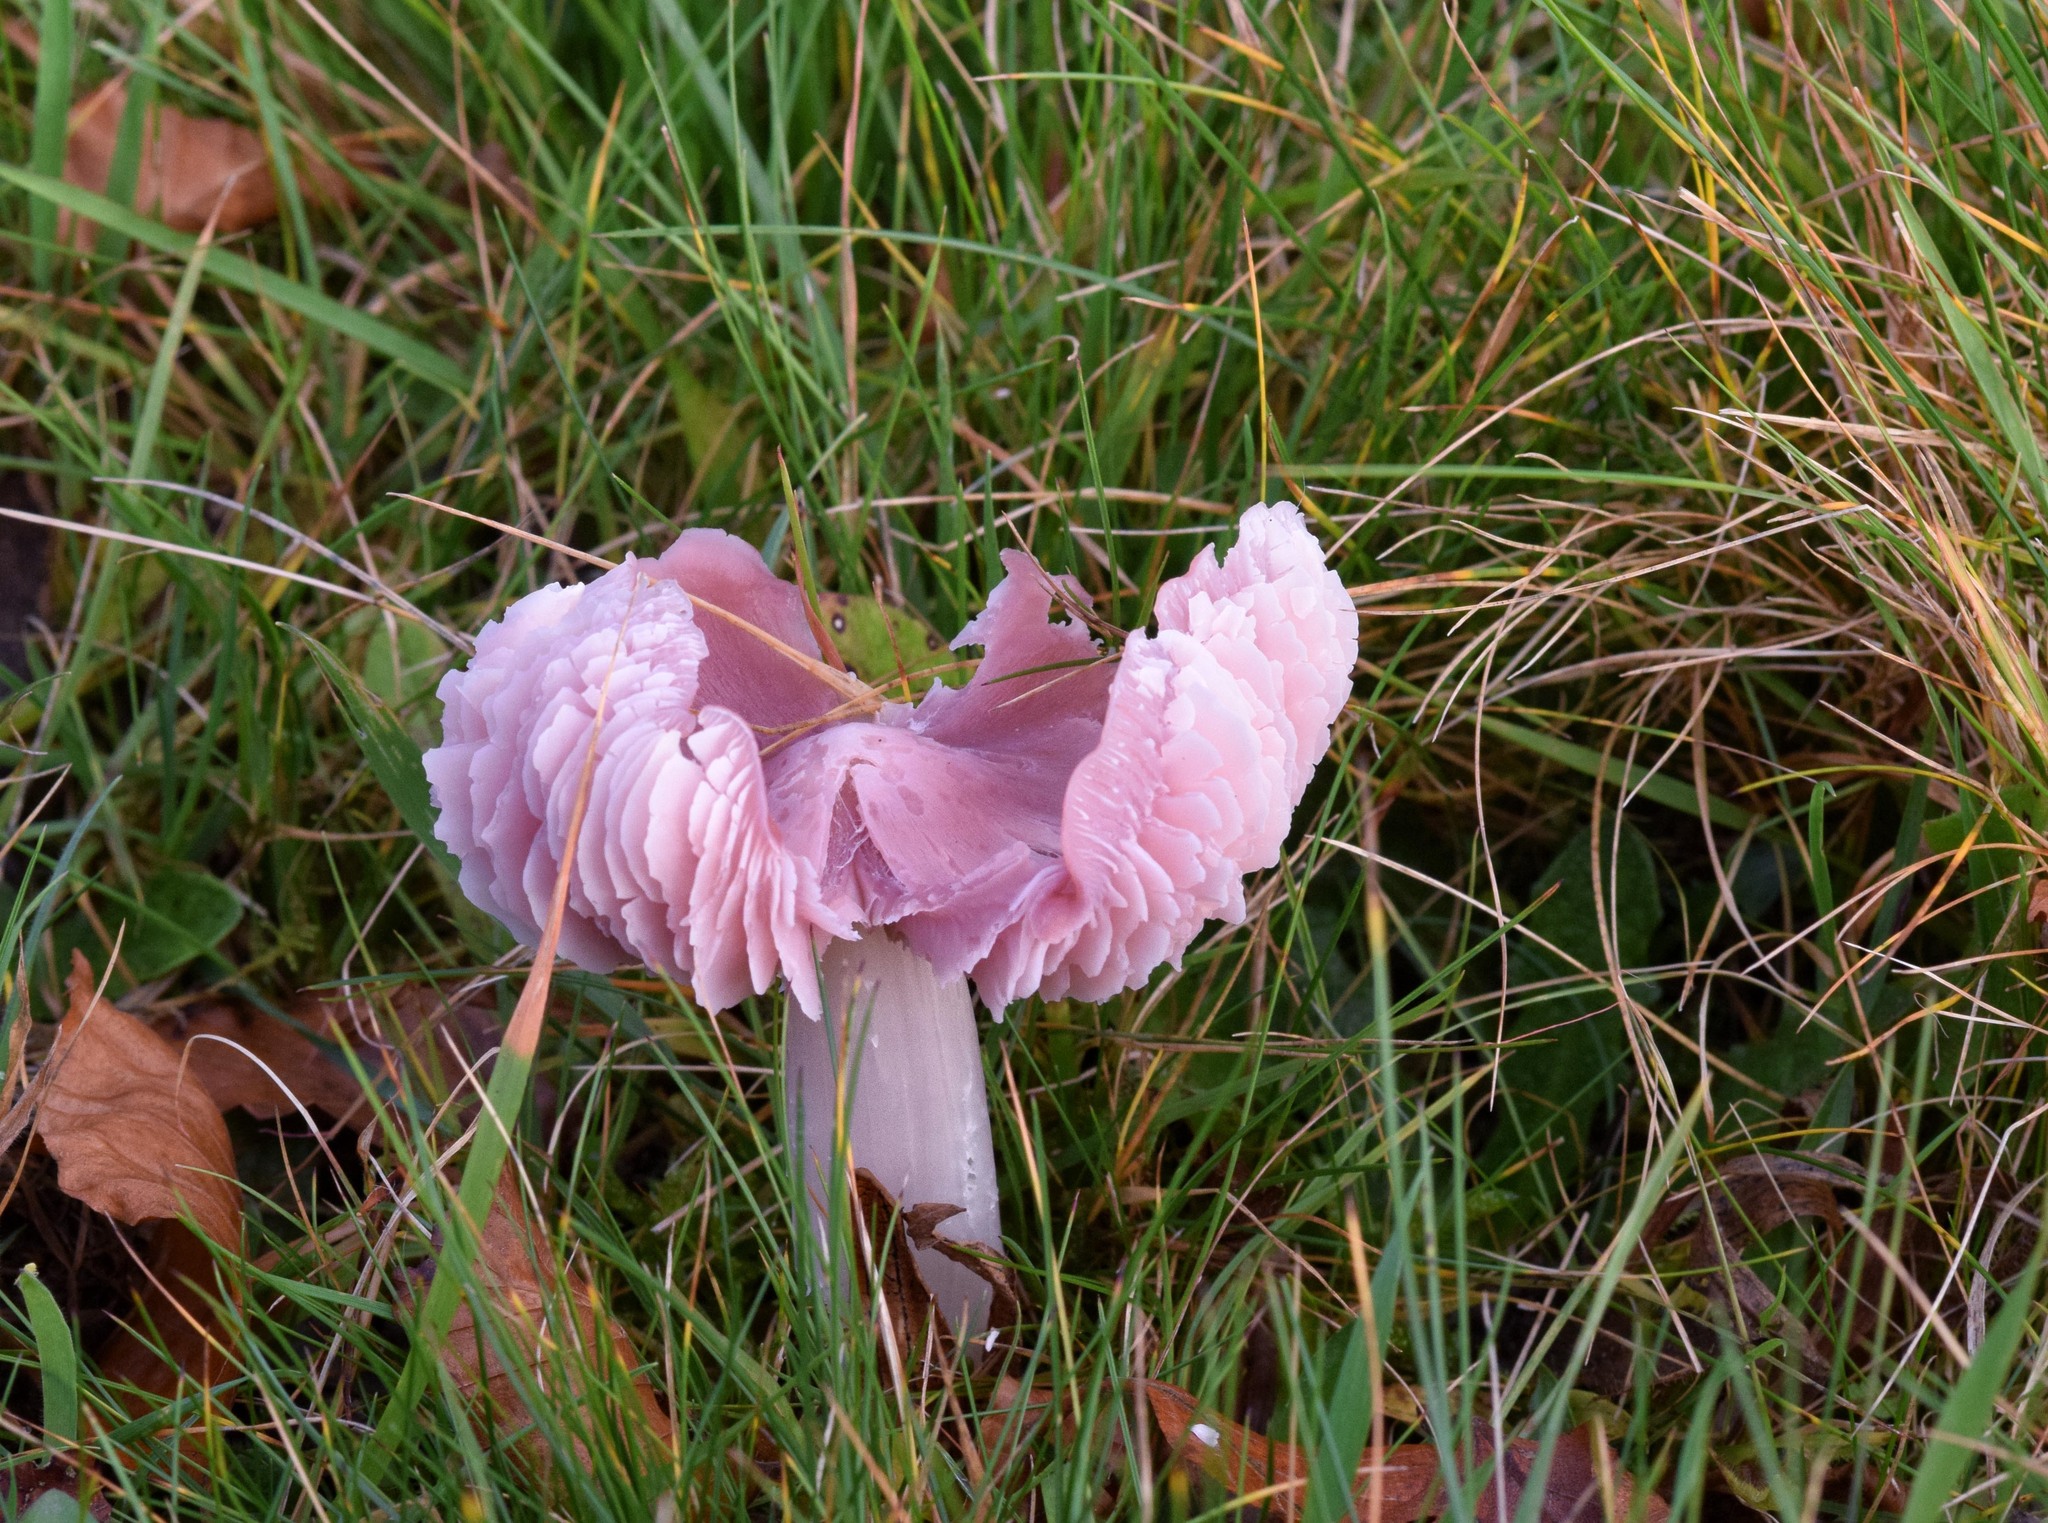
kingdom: Fungi
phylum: Basidiomycota
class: Agaricomycetes
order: Agaricales
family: Hygrophoraceae
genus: Porpolomopsis
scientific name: Porpolomopsis calyptriformis
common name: Pink waxcap
